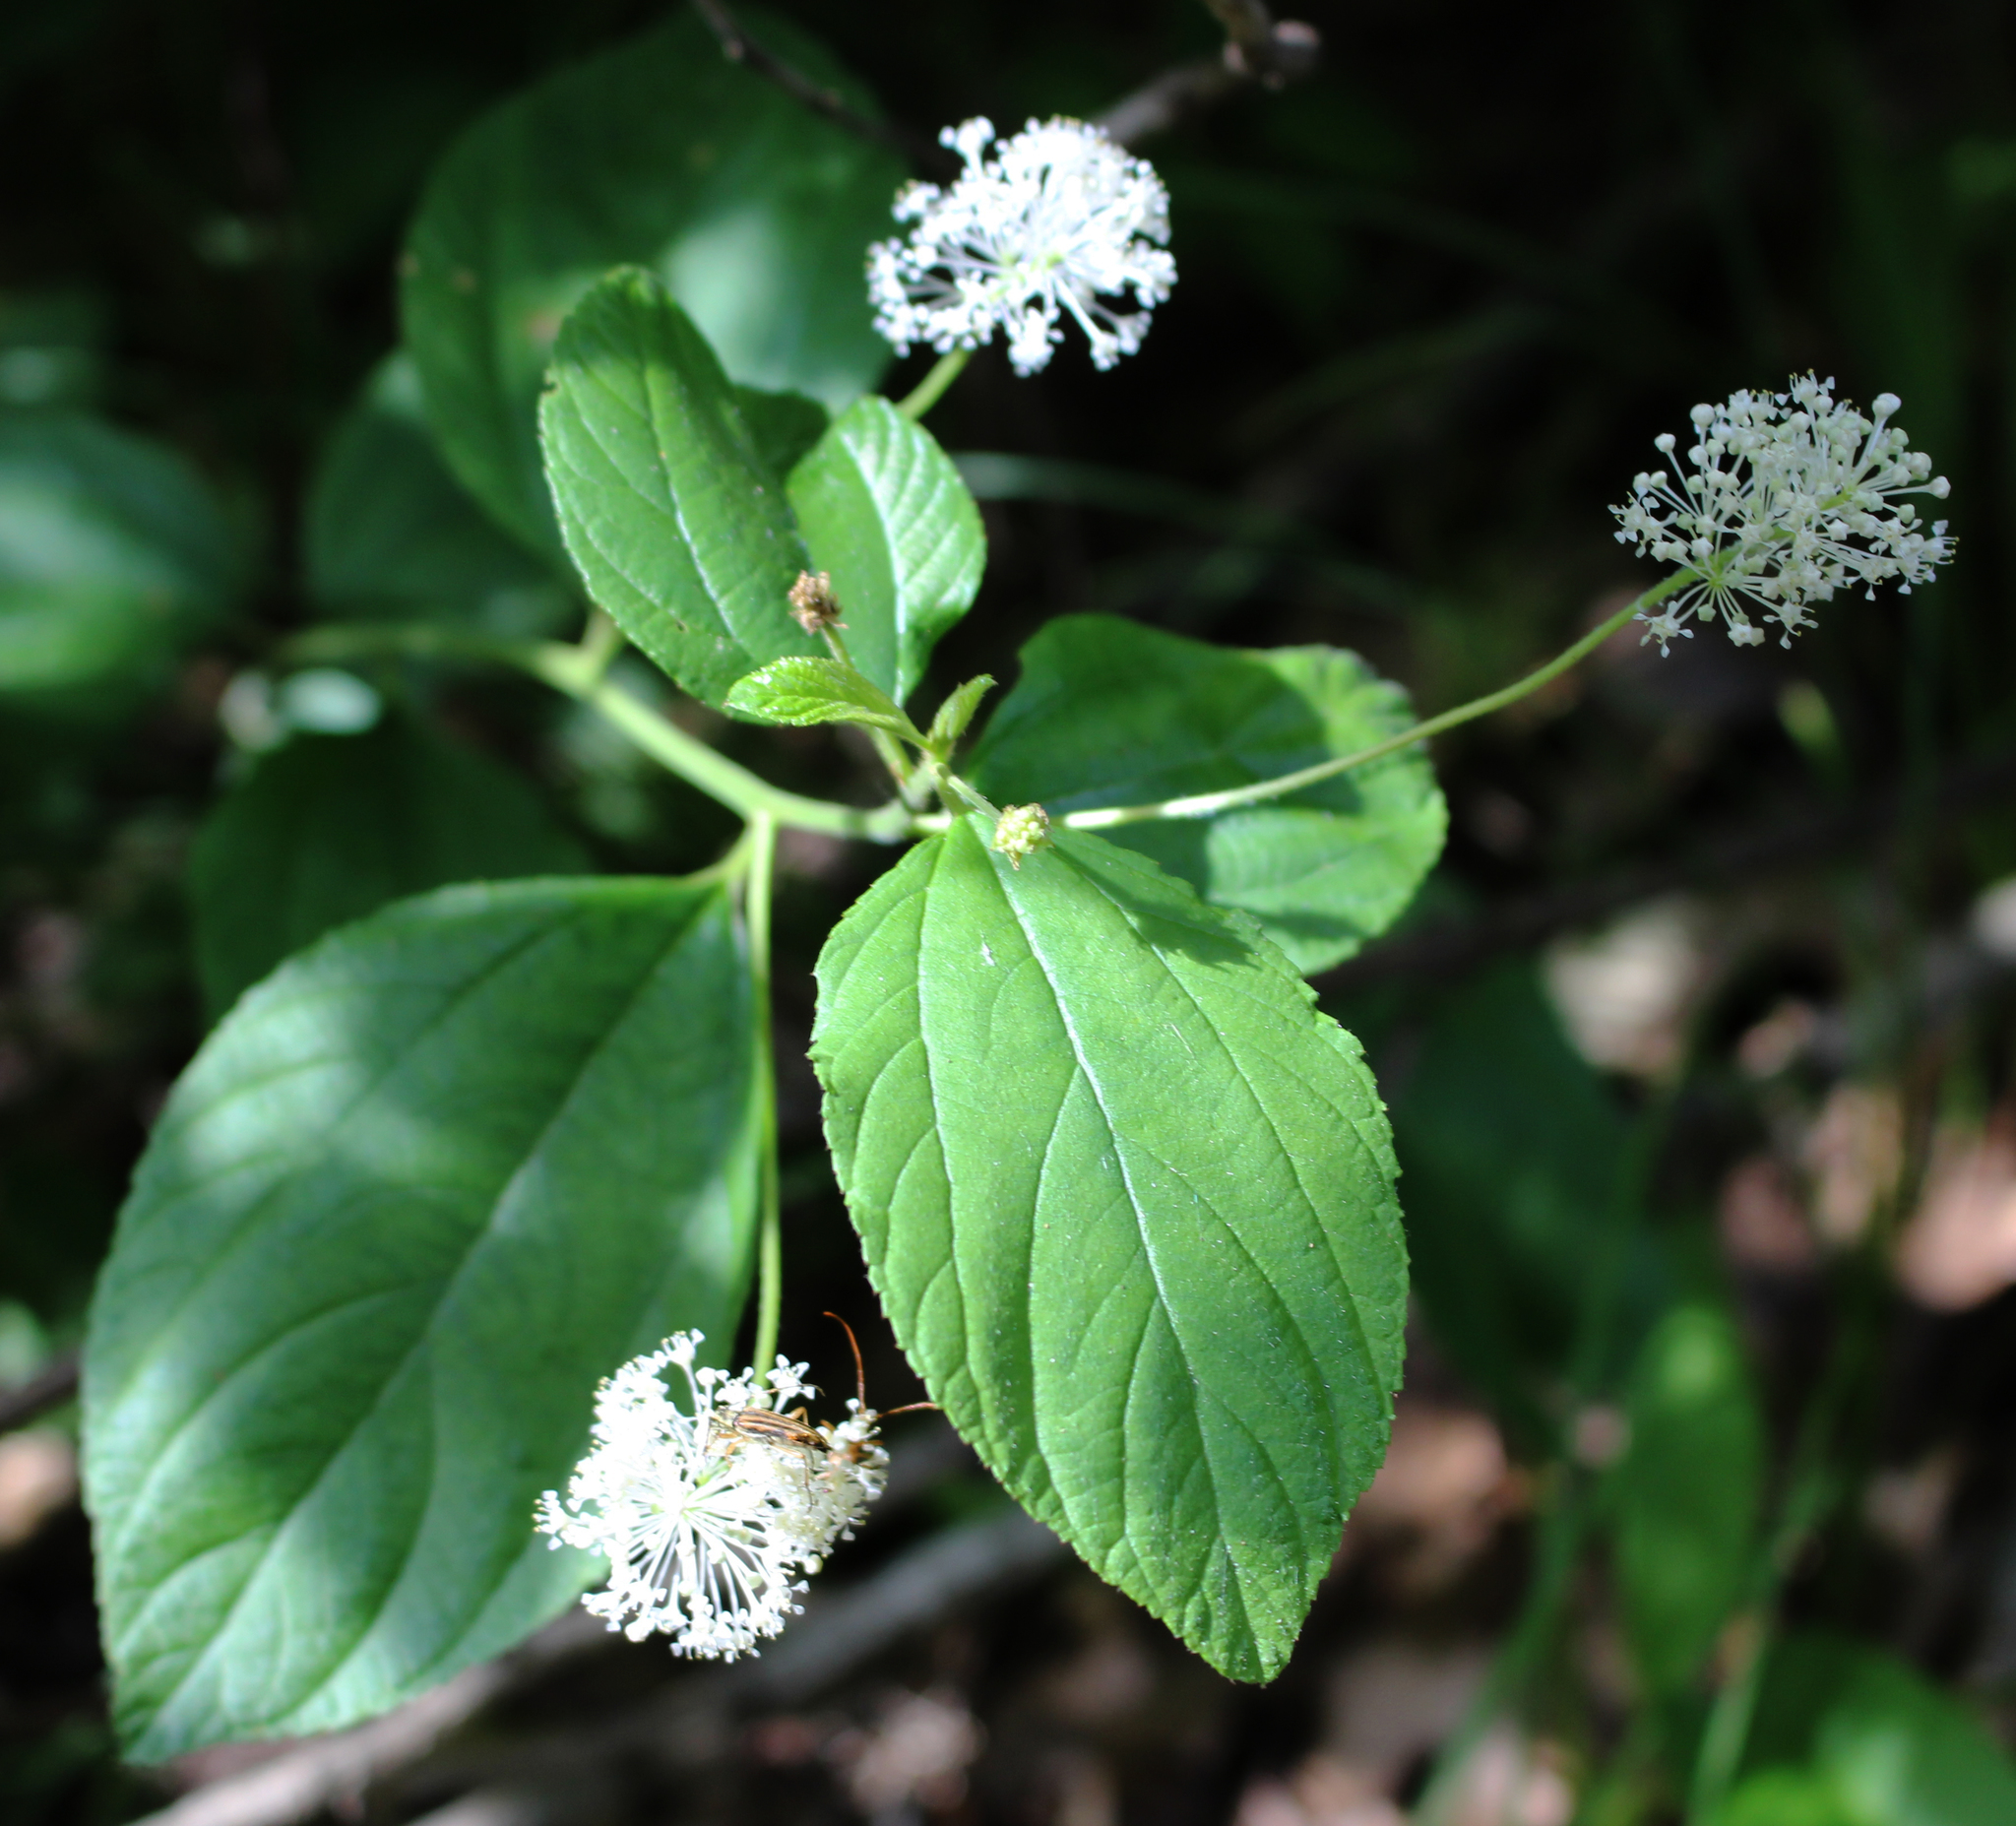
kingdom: Plantae
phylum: Tracheophyta
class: Magnoliopsida
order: Rosales
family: Rhamnaceae
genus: Ceanothus
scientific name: Ceanothus americanus
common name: Redroot
